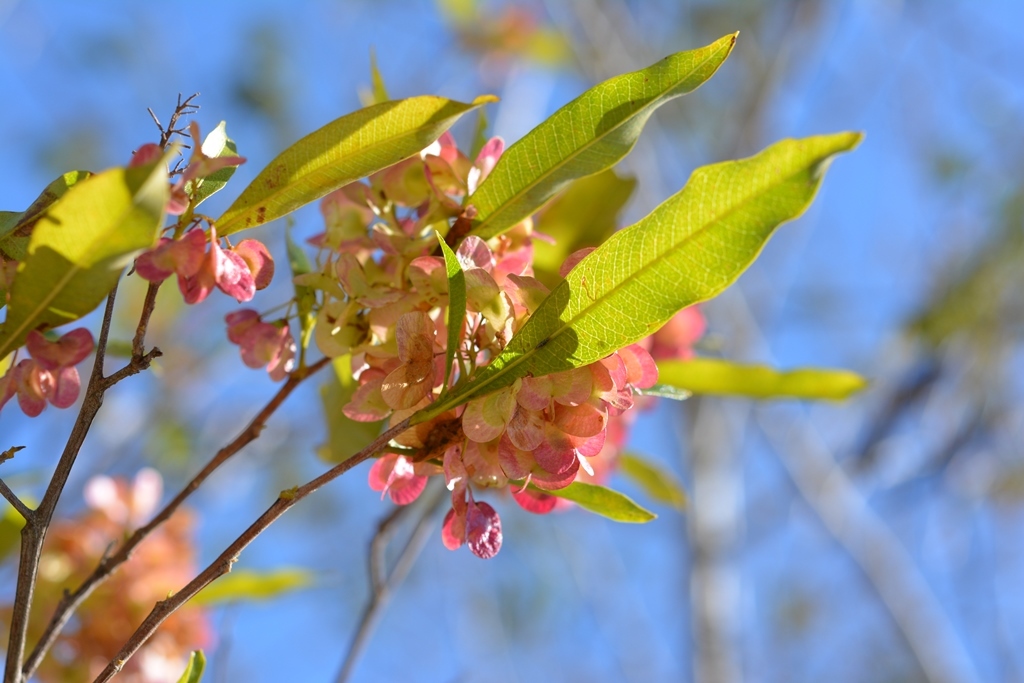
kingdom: Plantae
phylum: Tracheophyta
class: Magnoliopsida
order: Sapindales
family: Sapindaceae
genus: Dodonaea
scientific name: Dodonaea viscosa
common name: Hopbush
